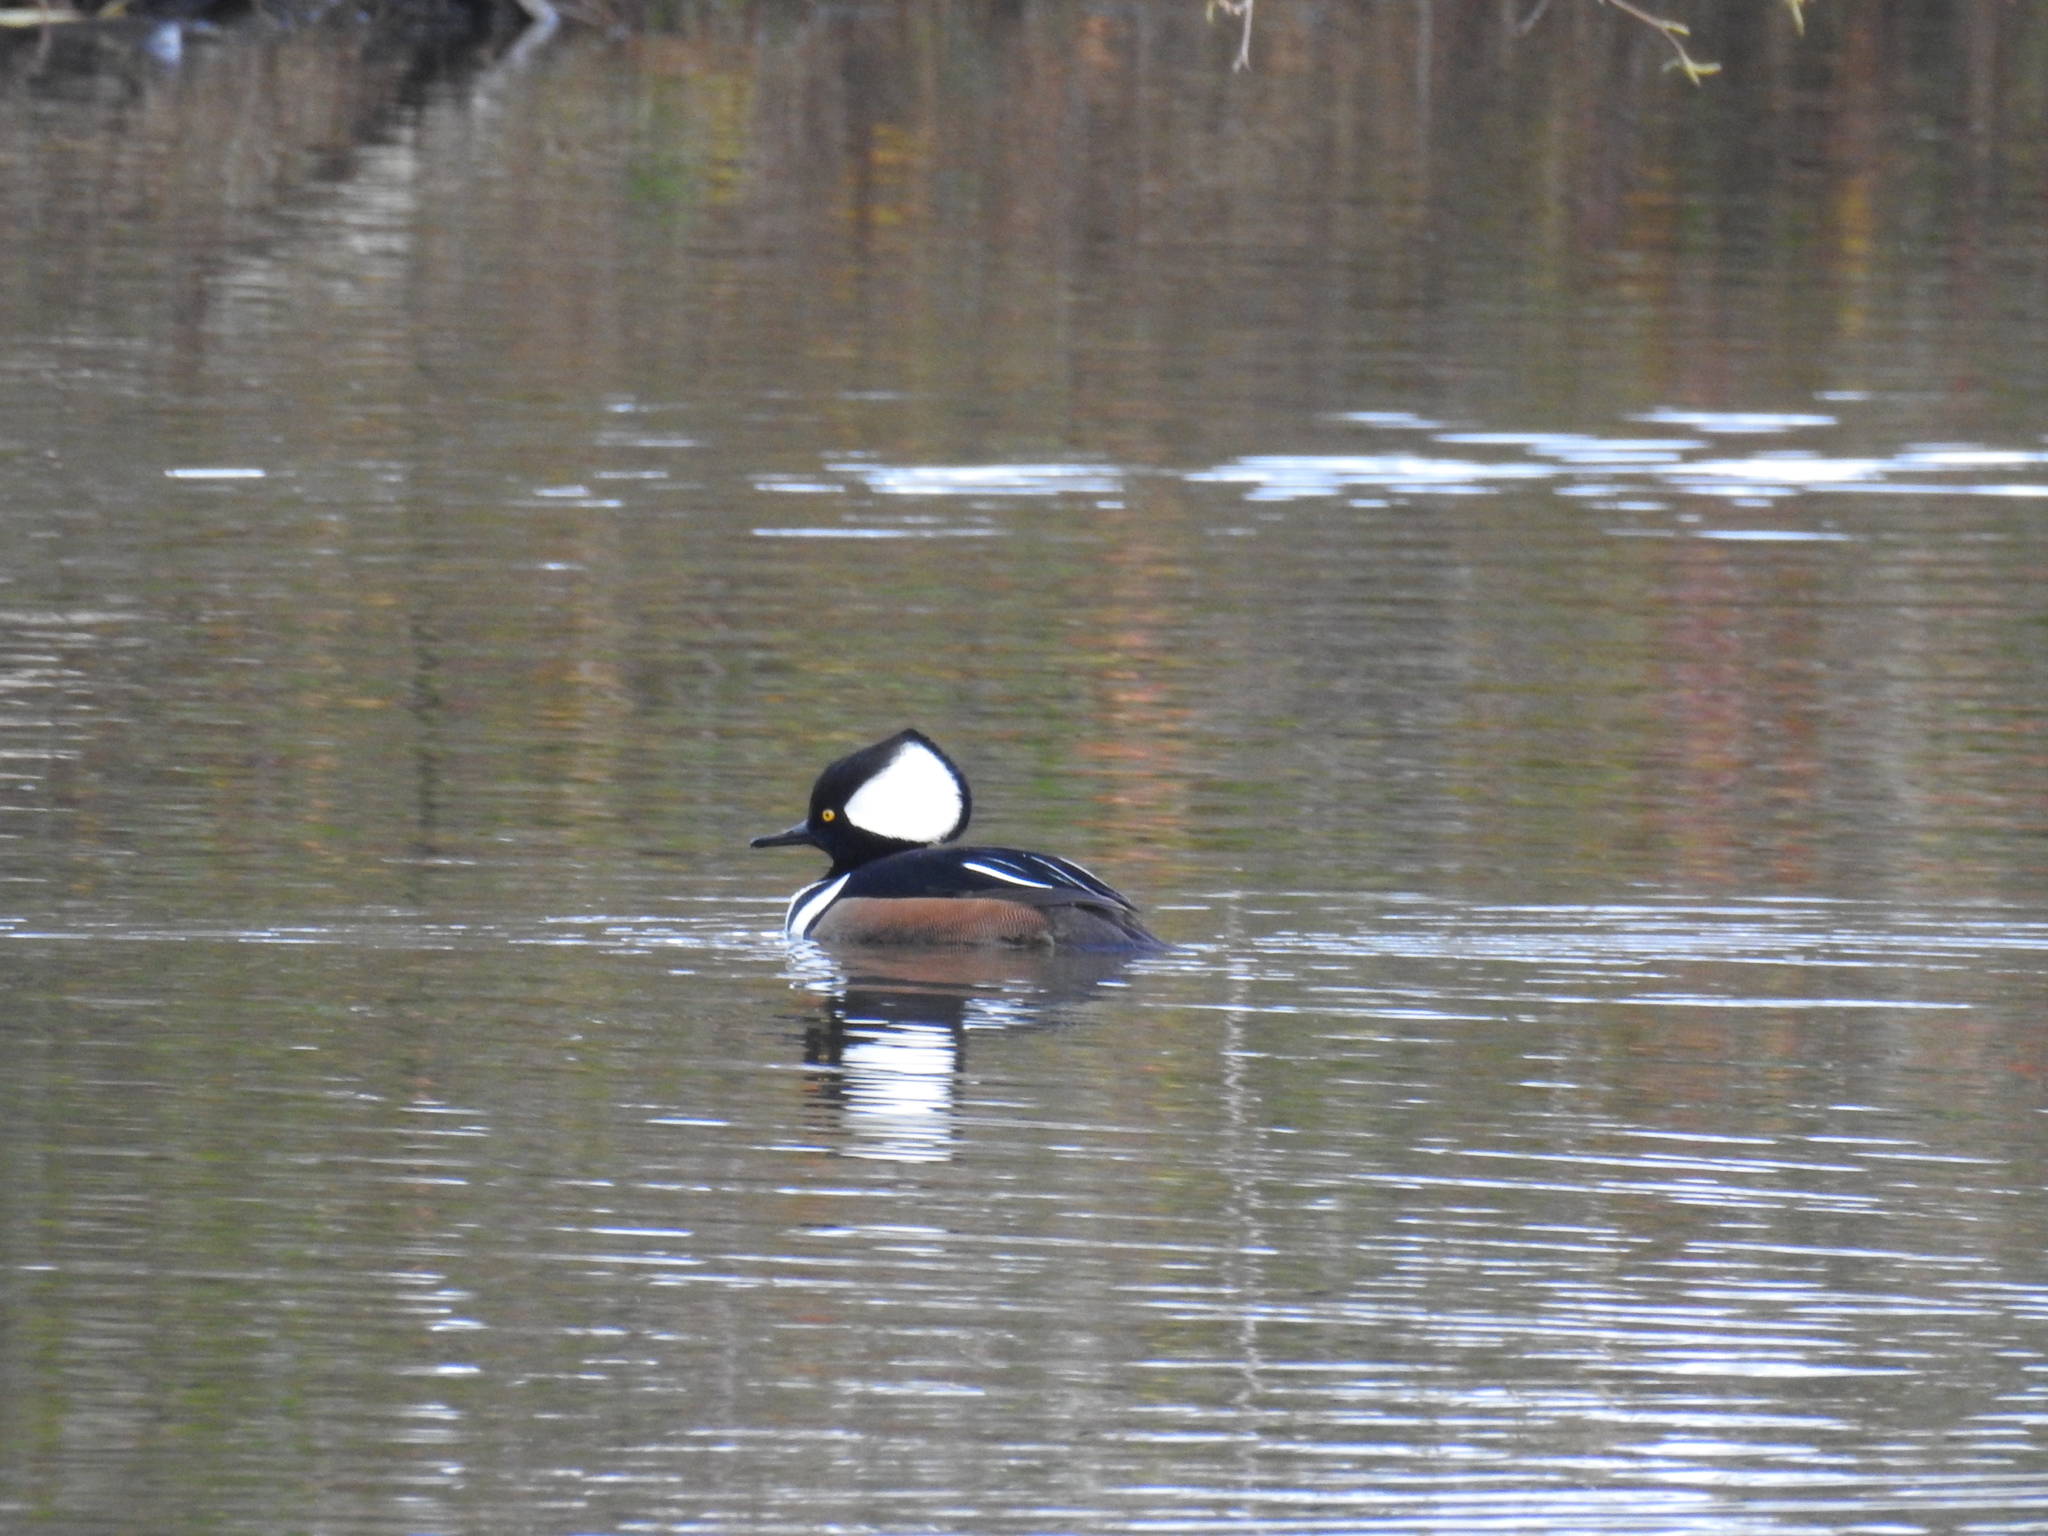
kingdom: Animalia
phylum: Chordata
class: Aves
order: Anseriformes
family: Anatidae
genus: Lophodytes
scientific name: Lophodytes cucullatus
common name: Hooded merganser
